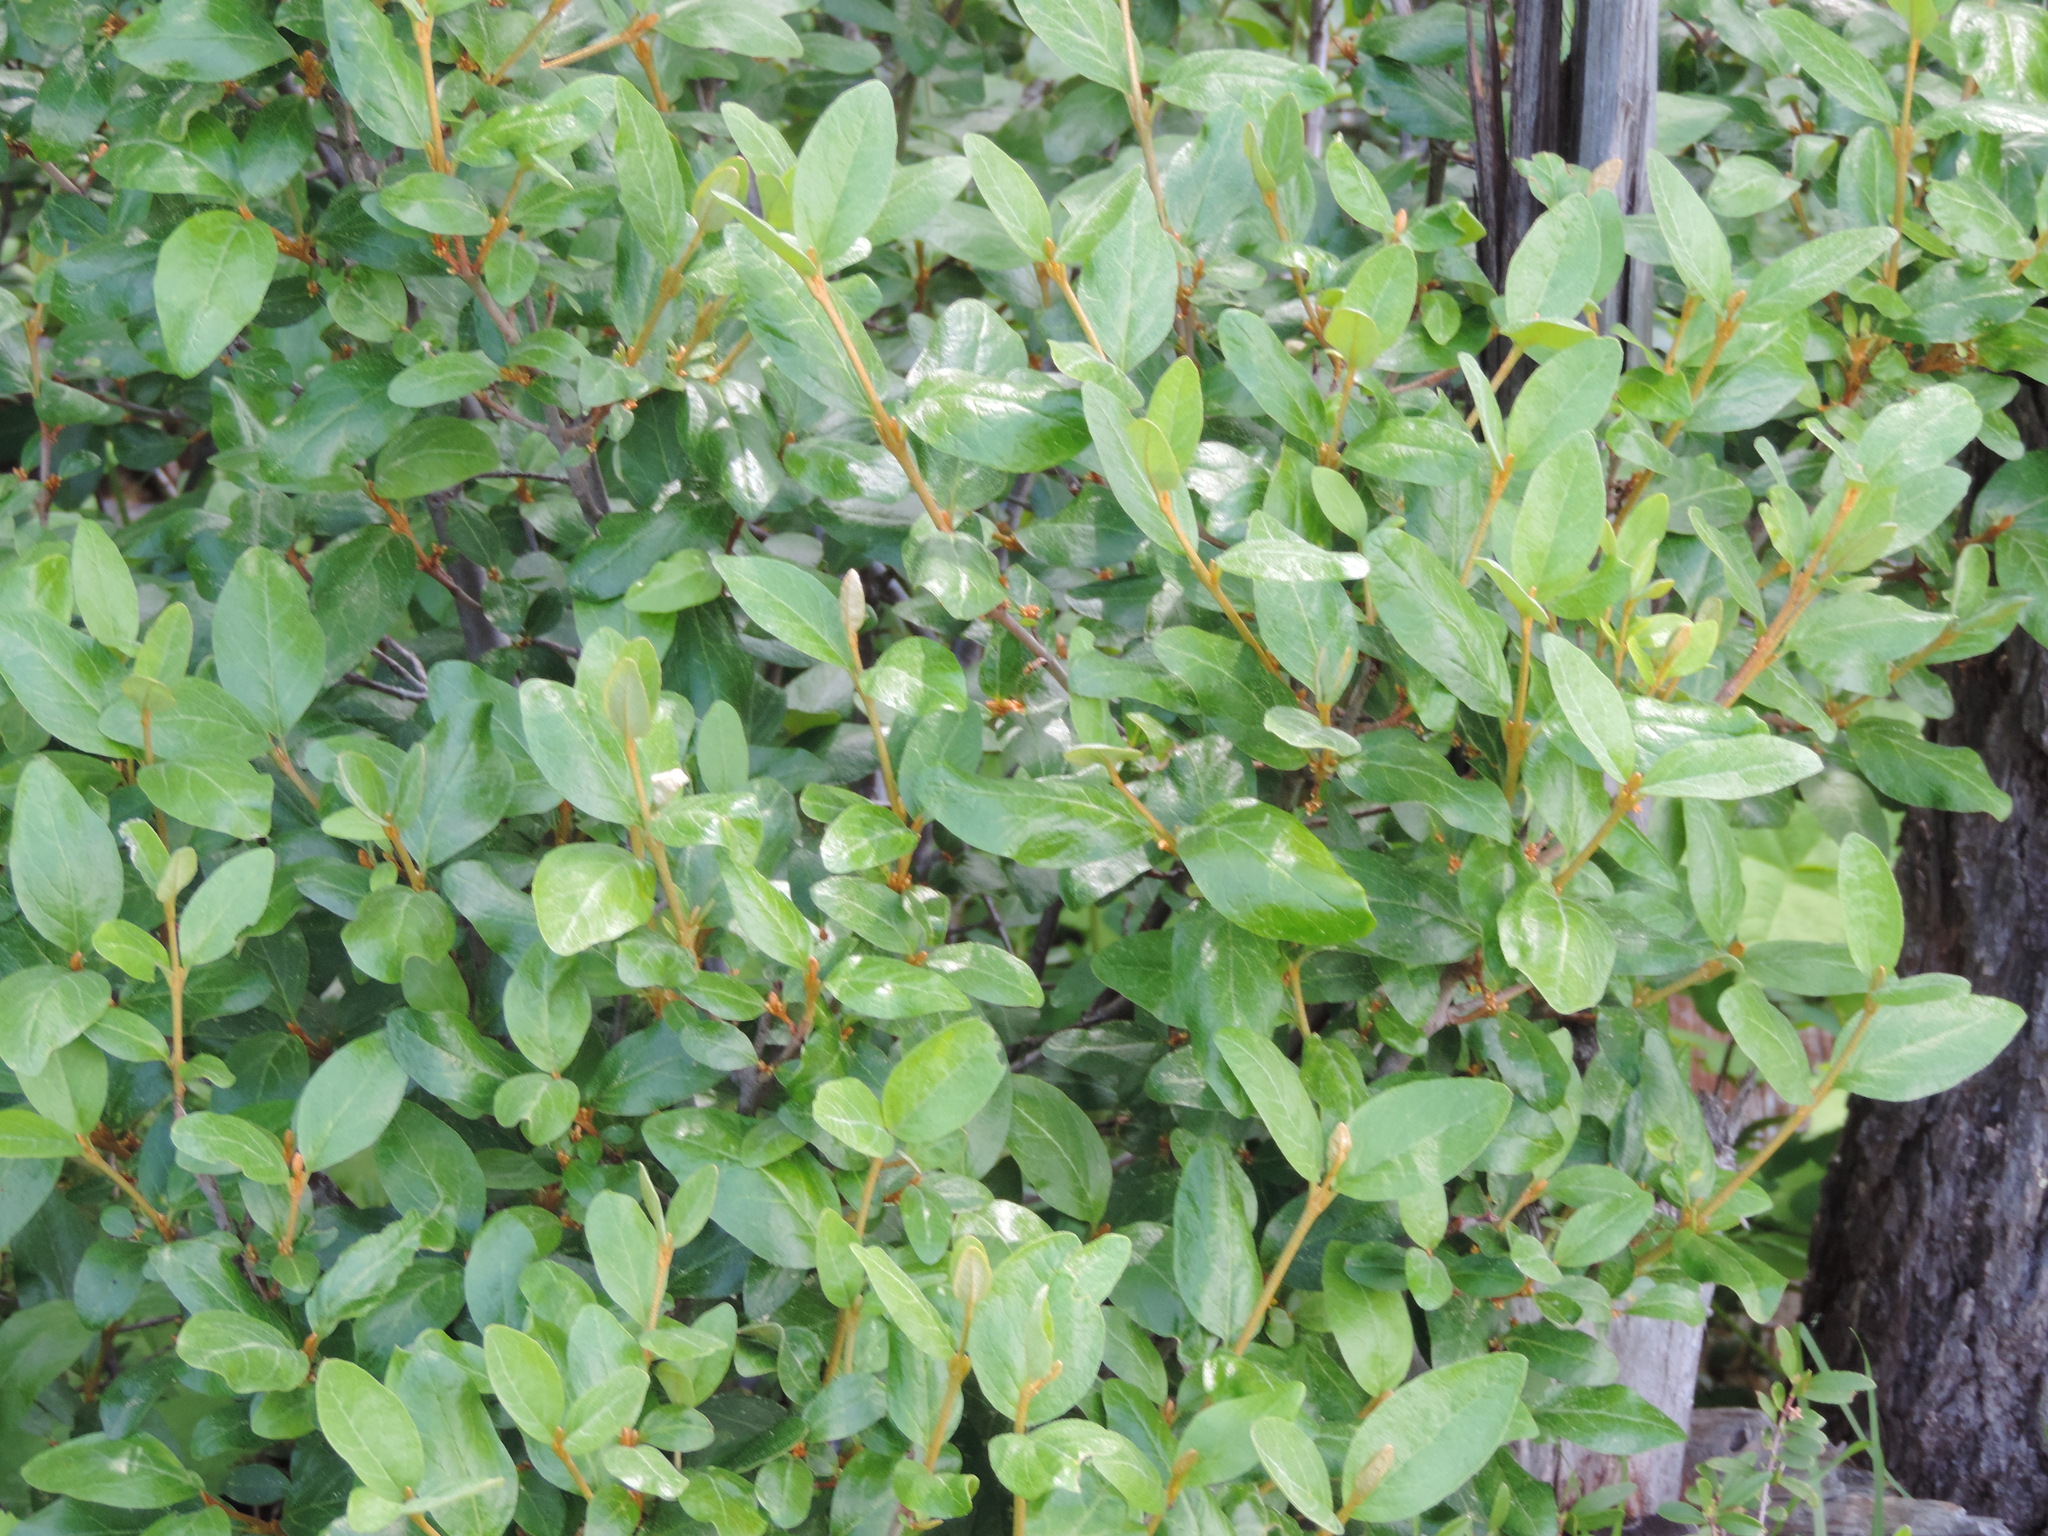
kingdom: Plantae
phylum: Tracheophyta
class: Magnoliopsida
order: Rosales
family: Elaeagnaceae
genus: Shepherdia
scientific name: Shepherdia canadensis
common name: Soapberry
